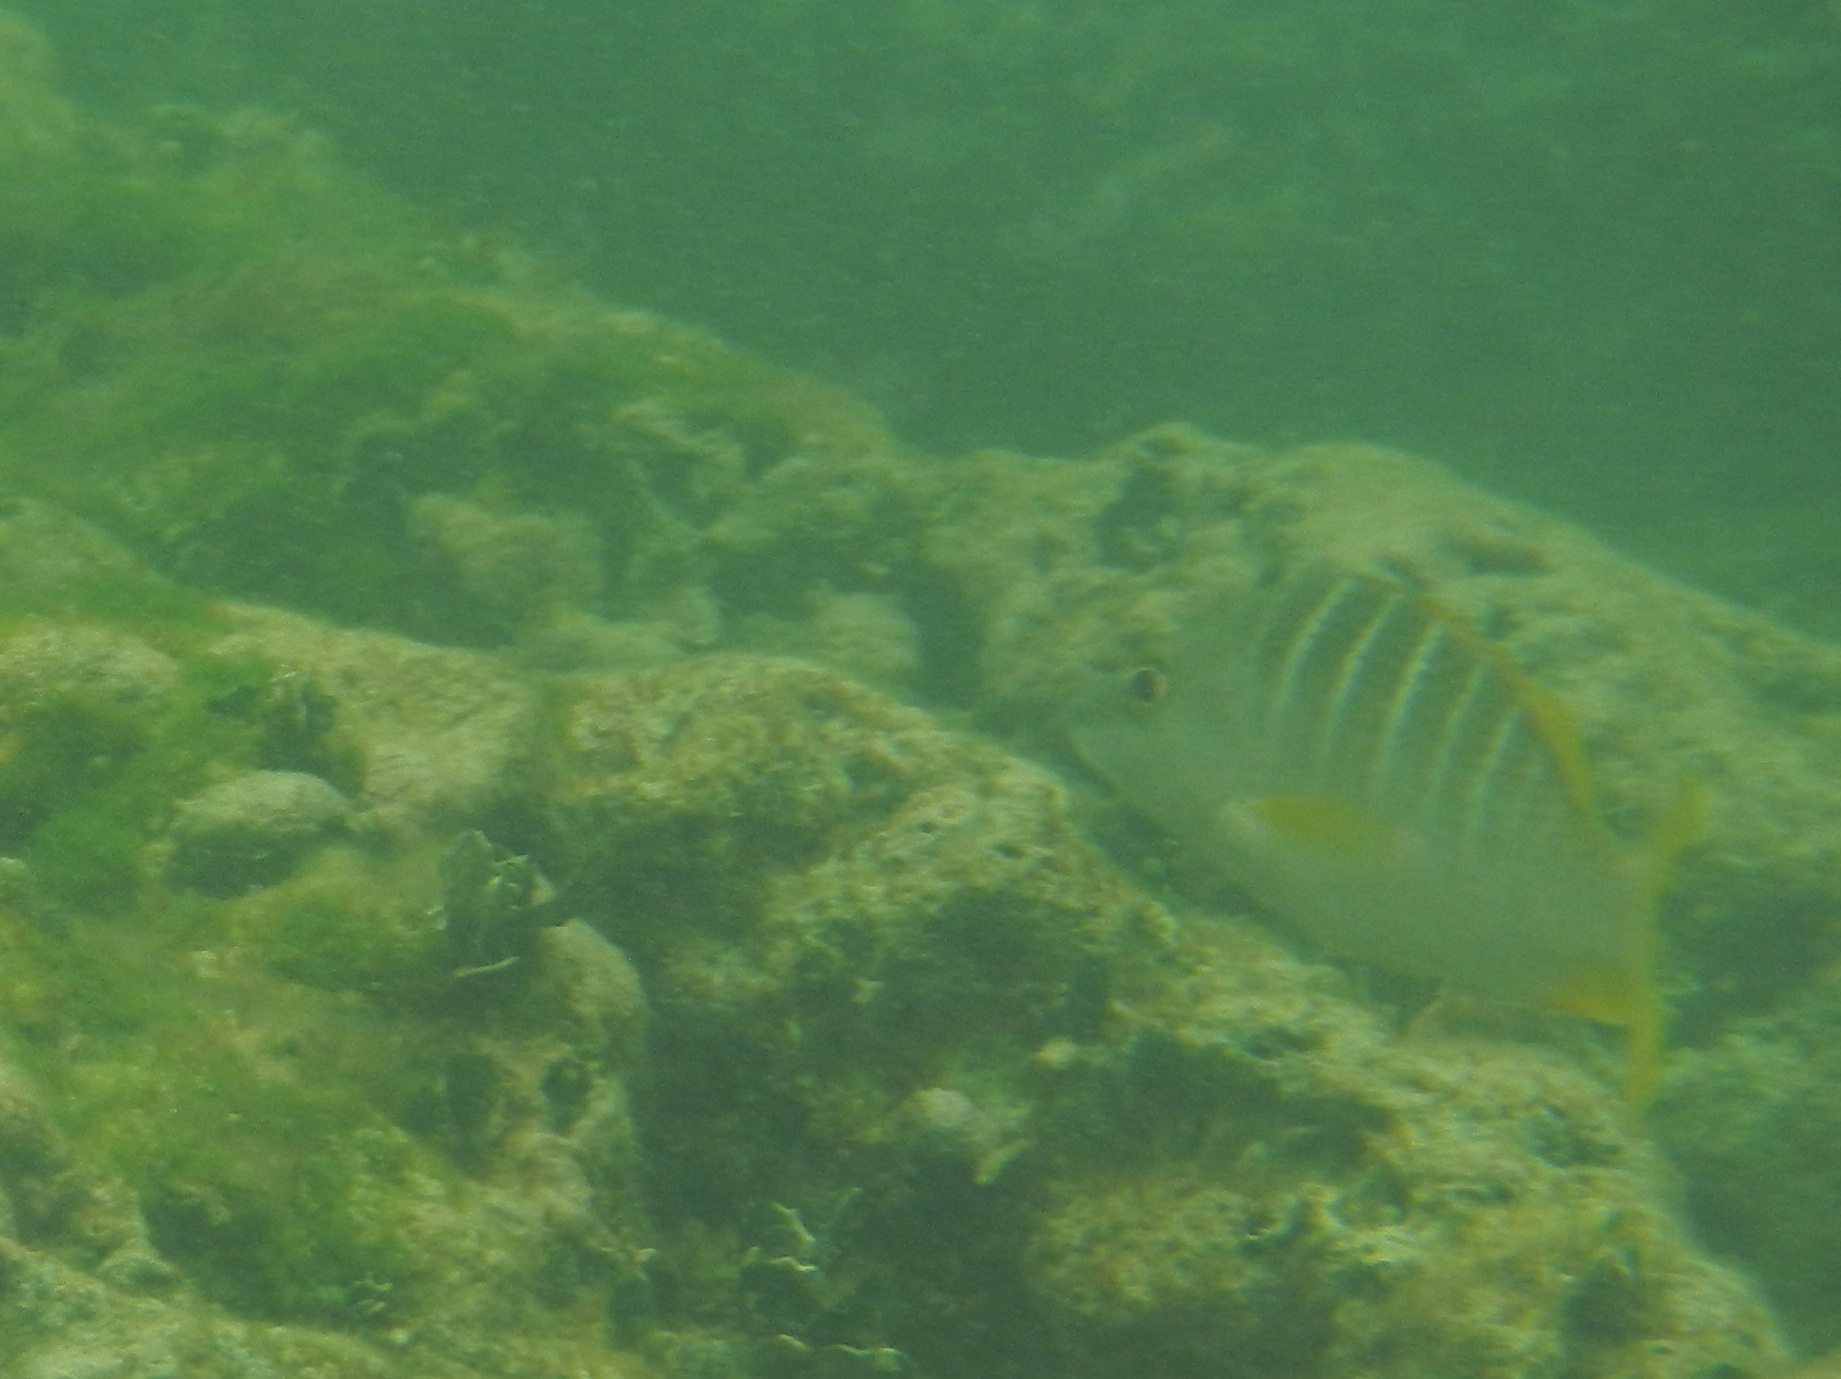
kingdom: Animalia
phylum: Chordata
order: Perciformes
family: Lutjanidae
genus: Lutjanus
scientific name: Lutjanus apodus
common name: Schoolmaster
